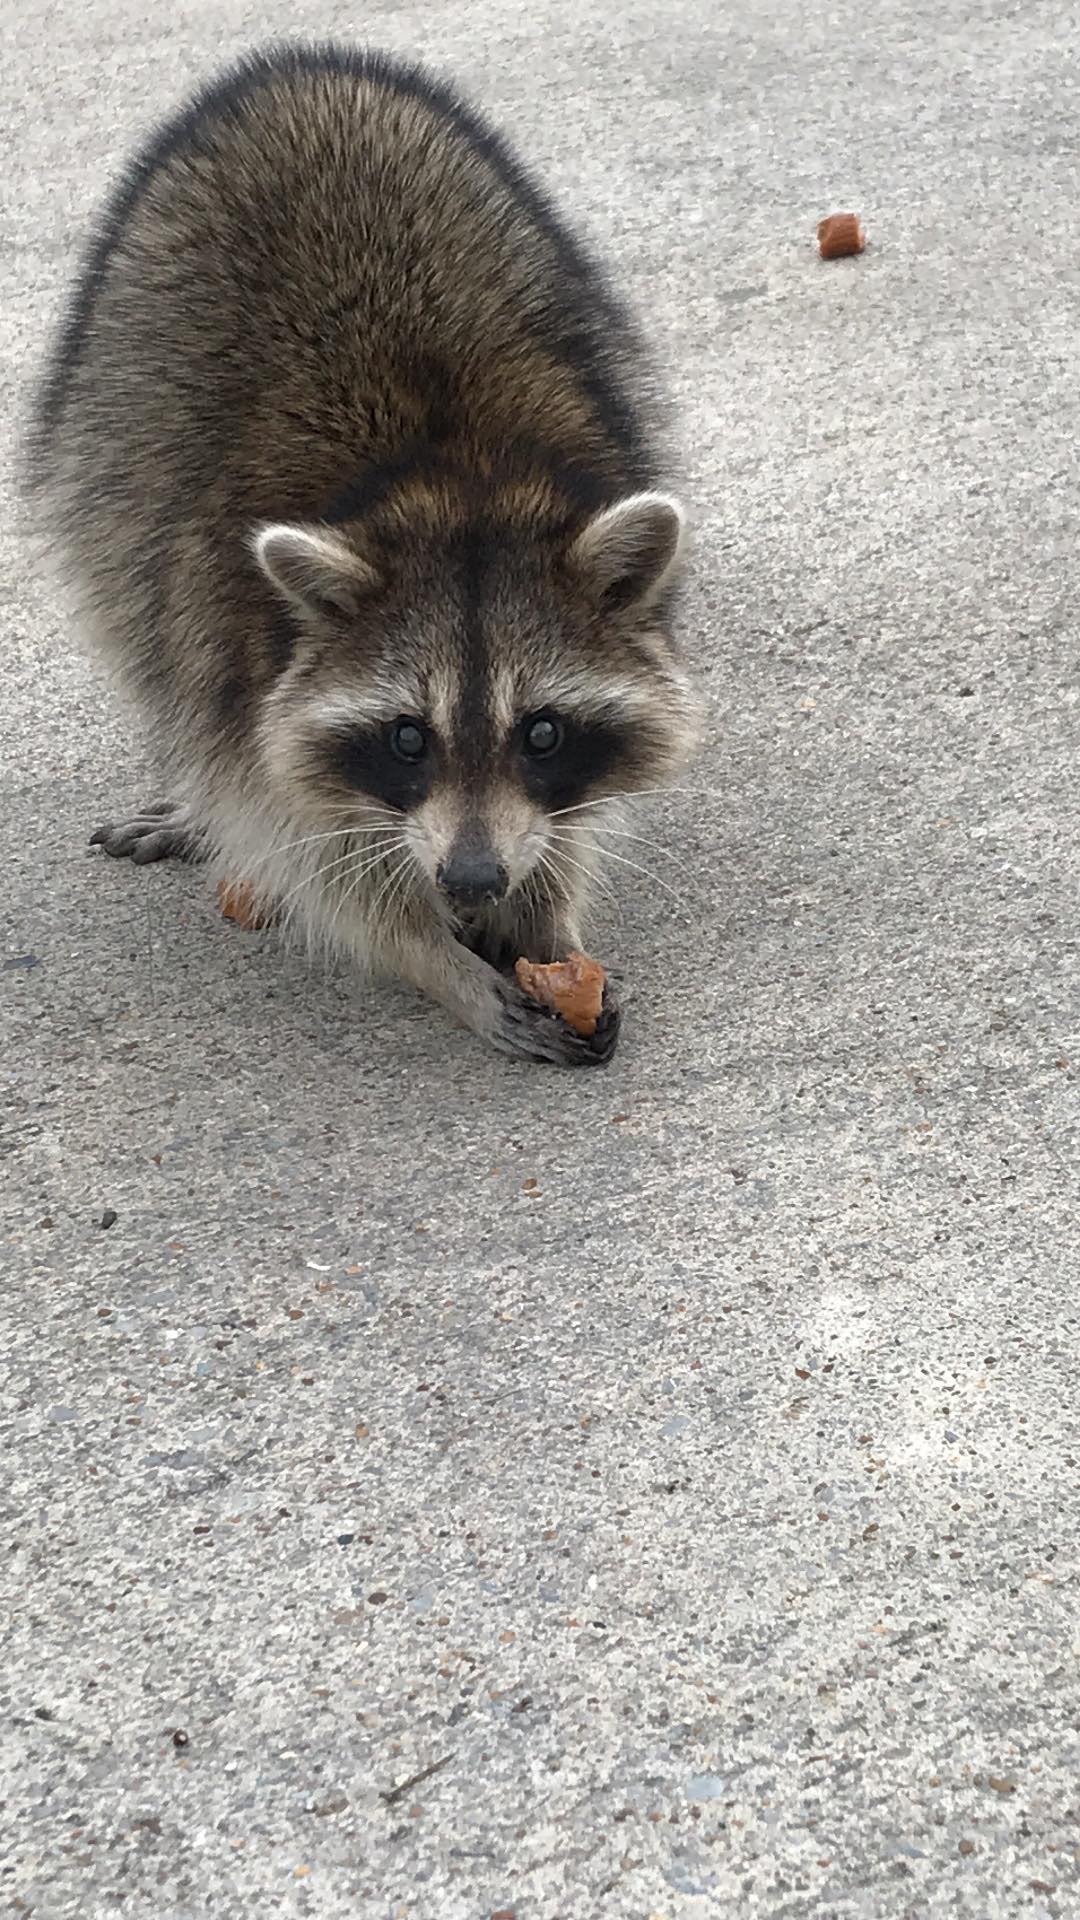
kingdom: Animalia
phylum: Chordata
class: Mammalia
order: Carnivora
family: Procyonidae
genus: Procyon
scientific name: Procyon lotor
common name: Raccoon
